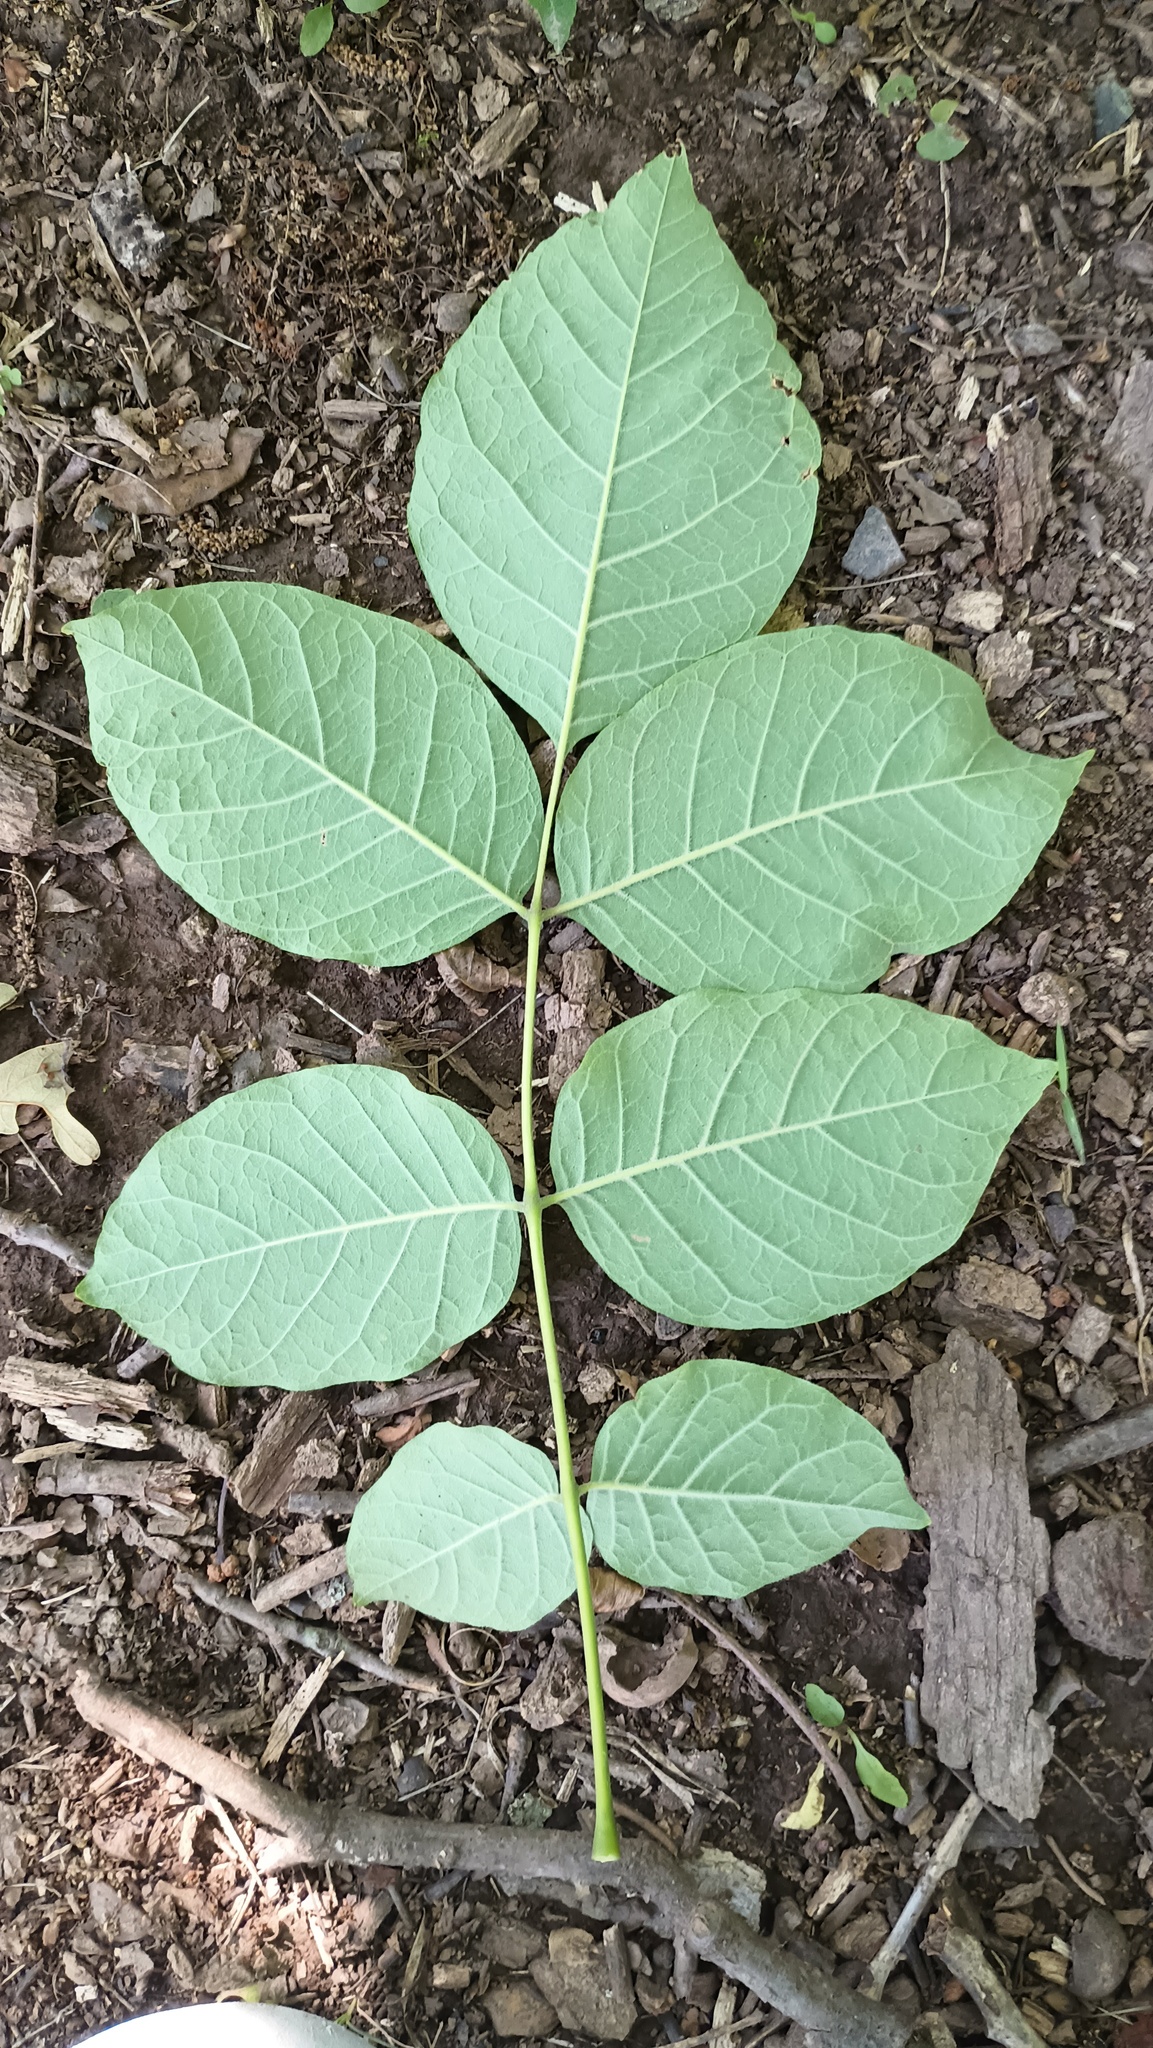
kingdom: Plantae
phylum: Tracheophyta
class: Magnoliopsida
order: Lamiales
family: Oleaceae
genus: Fraxinus
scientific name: Fraxinus americana
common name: White ash
